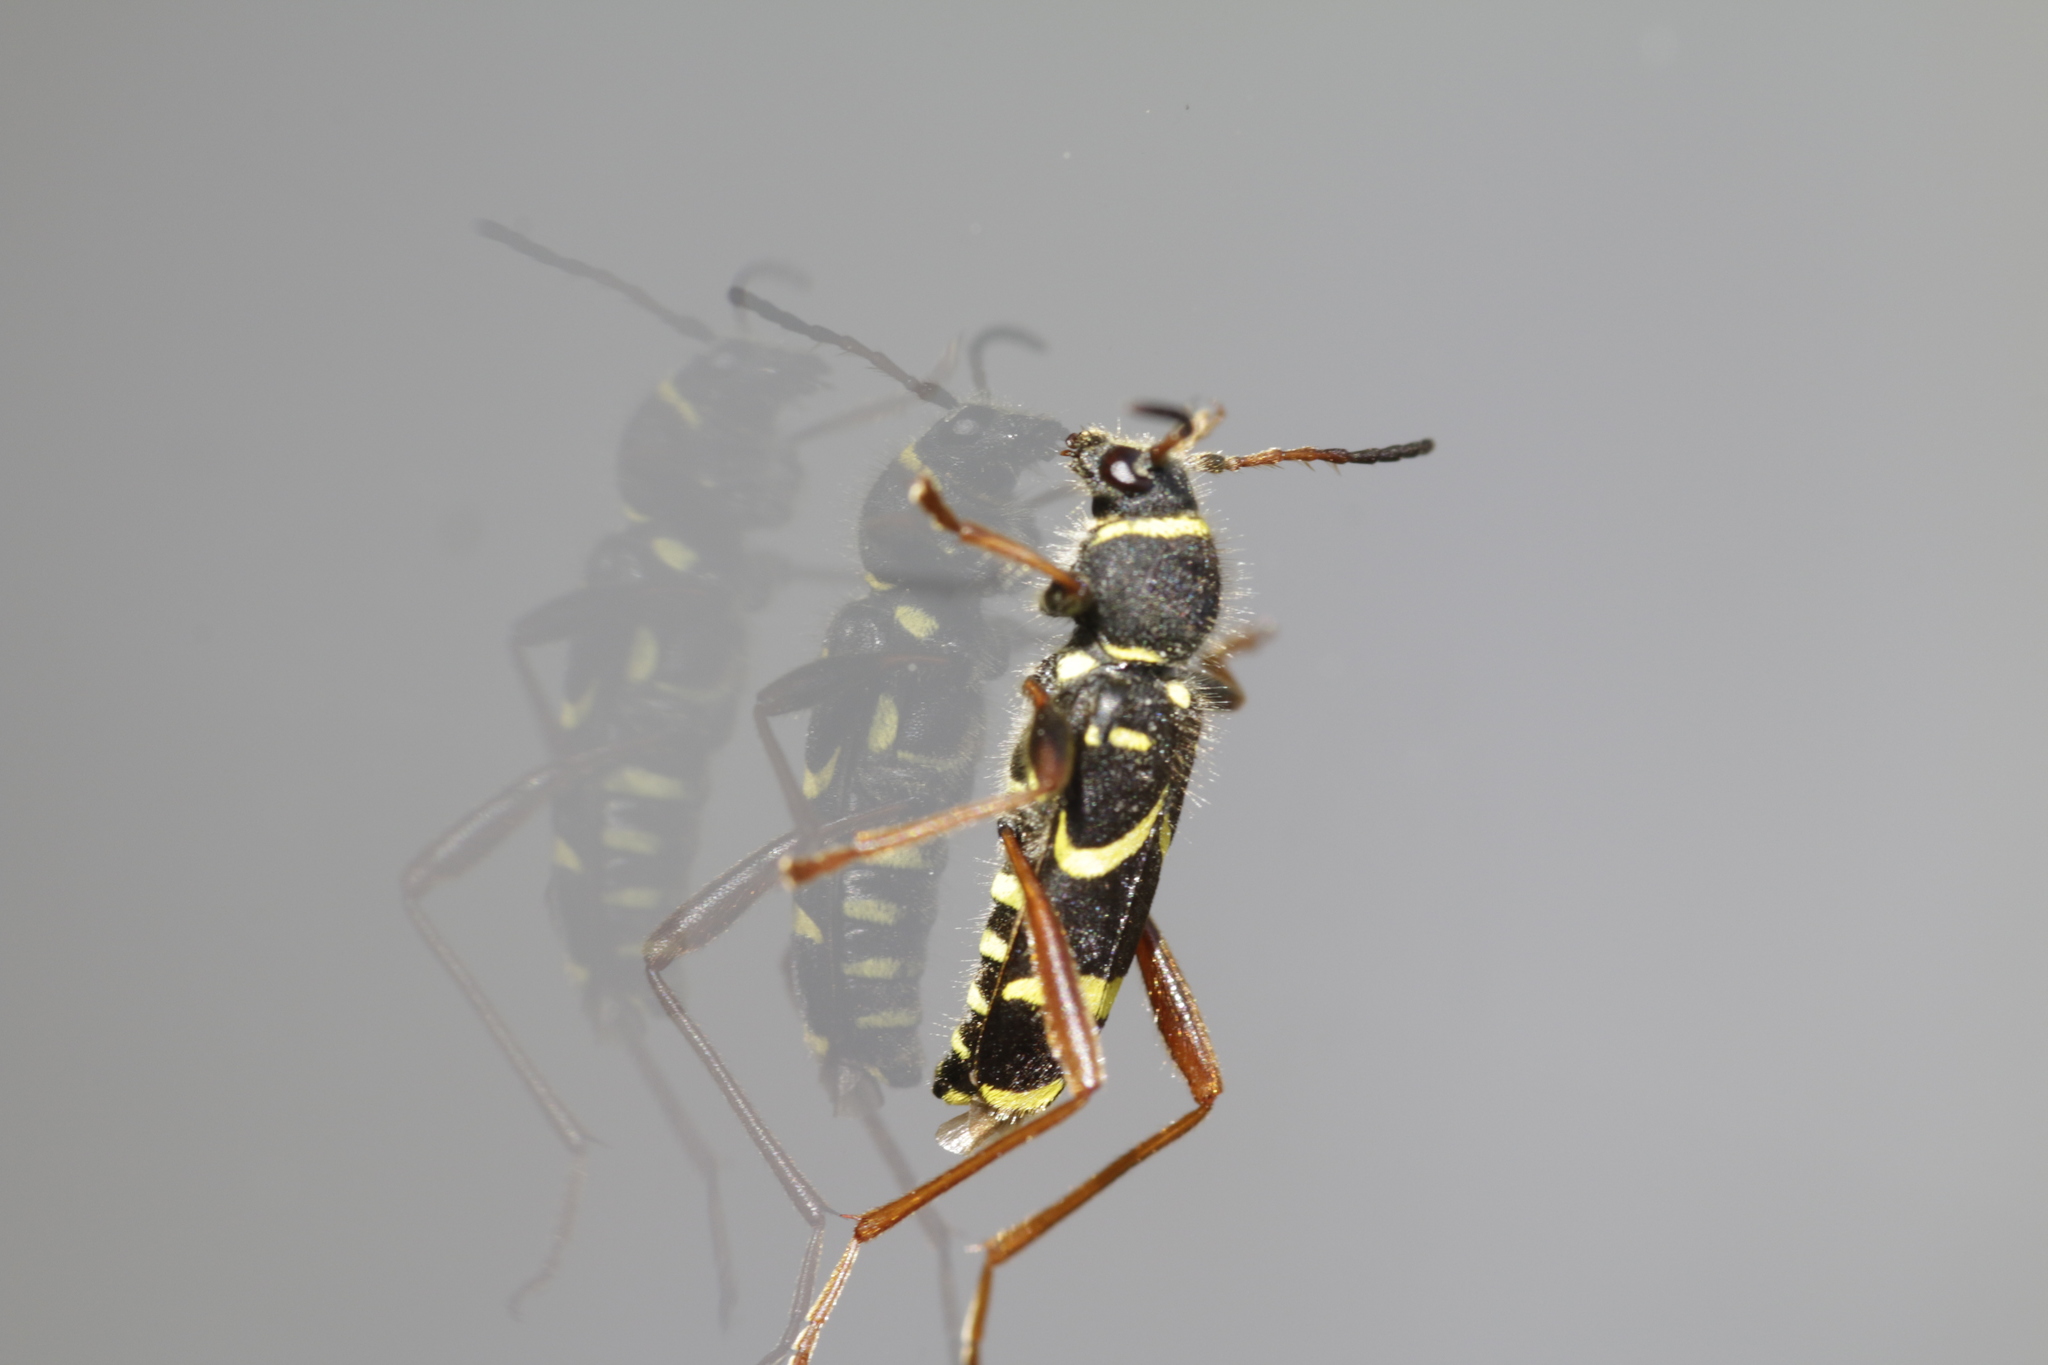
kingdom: Animalia
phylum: Arthropoda
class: Insecta
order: Coleoptera
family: Cerambycidae
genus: Clytus
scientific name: Clytus arietis
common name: Wasp beetle
